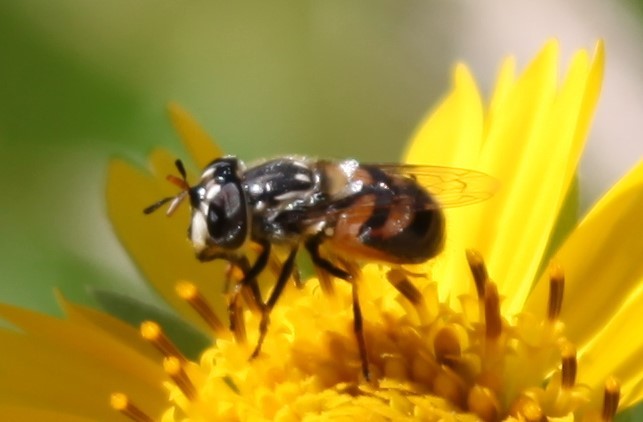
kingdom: Animalia
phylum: Arthropoda
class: Insecta
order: Diptera
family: Syrphidae
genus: Copestylum
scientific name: Copestylum marginatum
